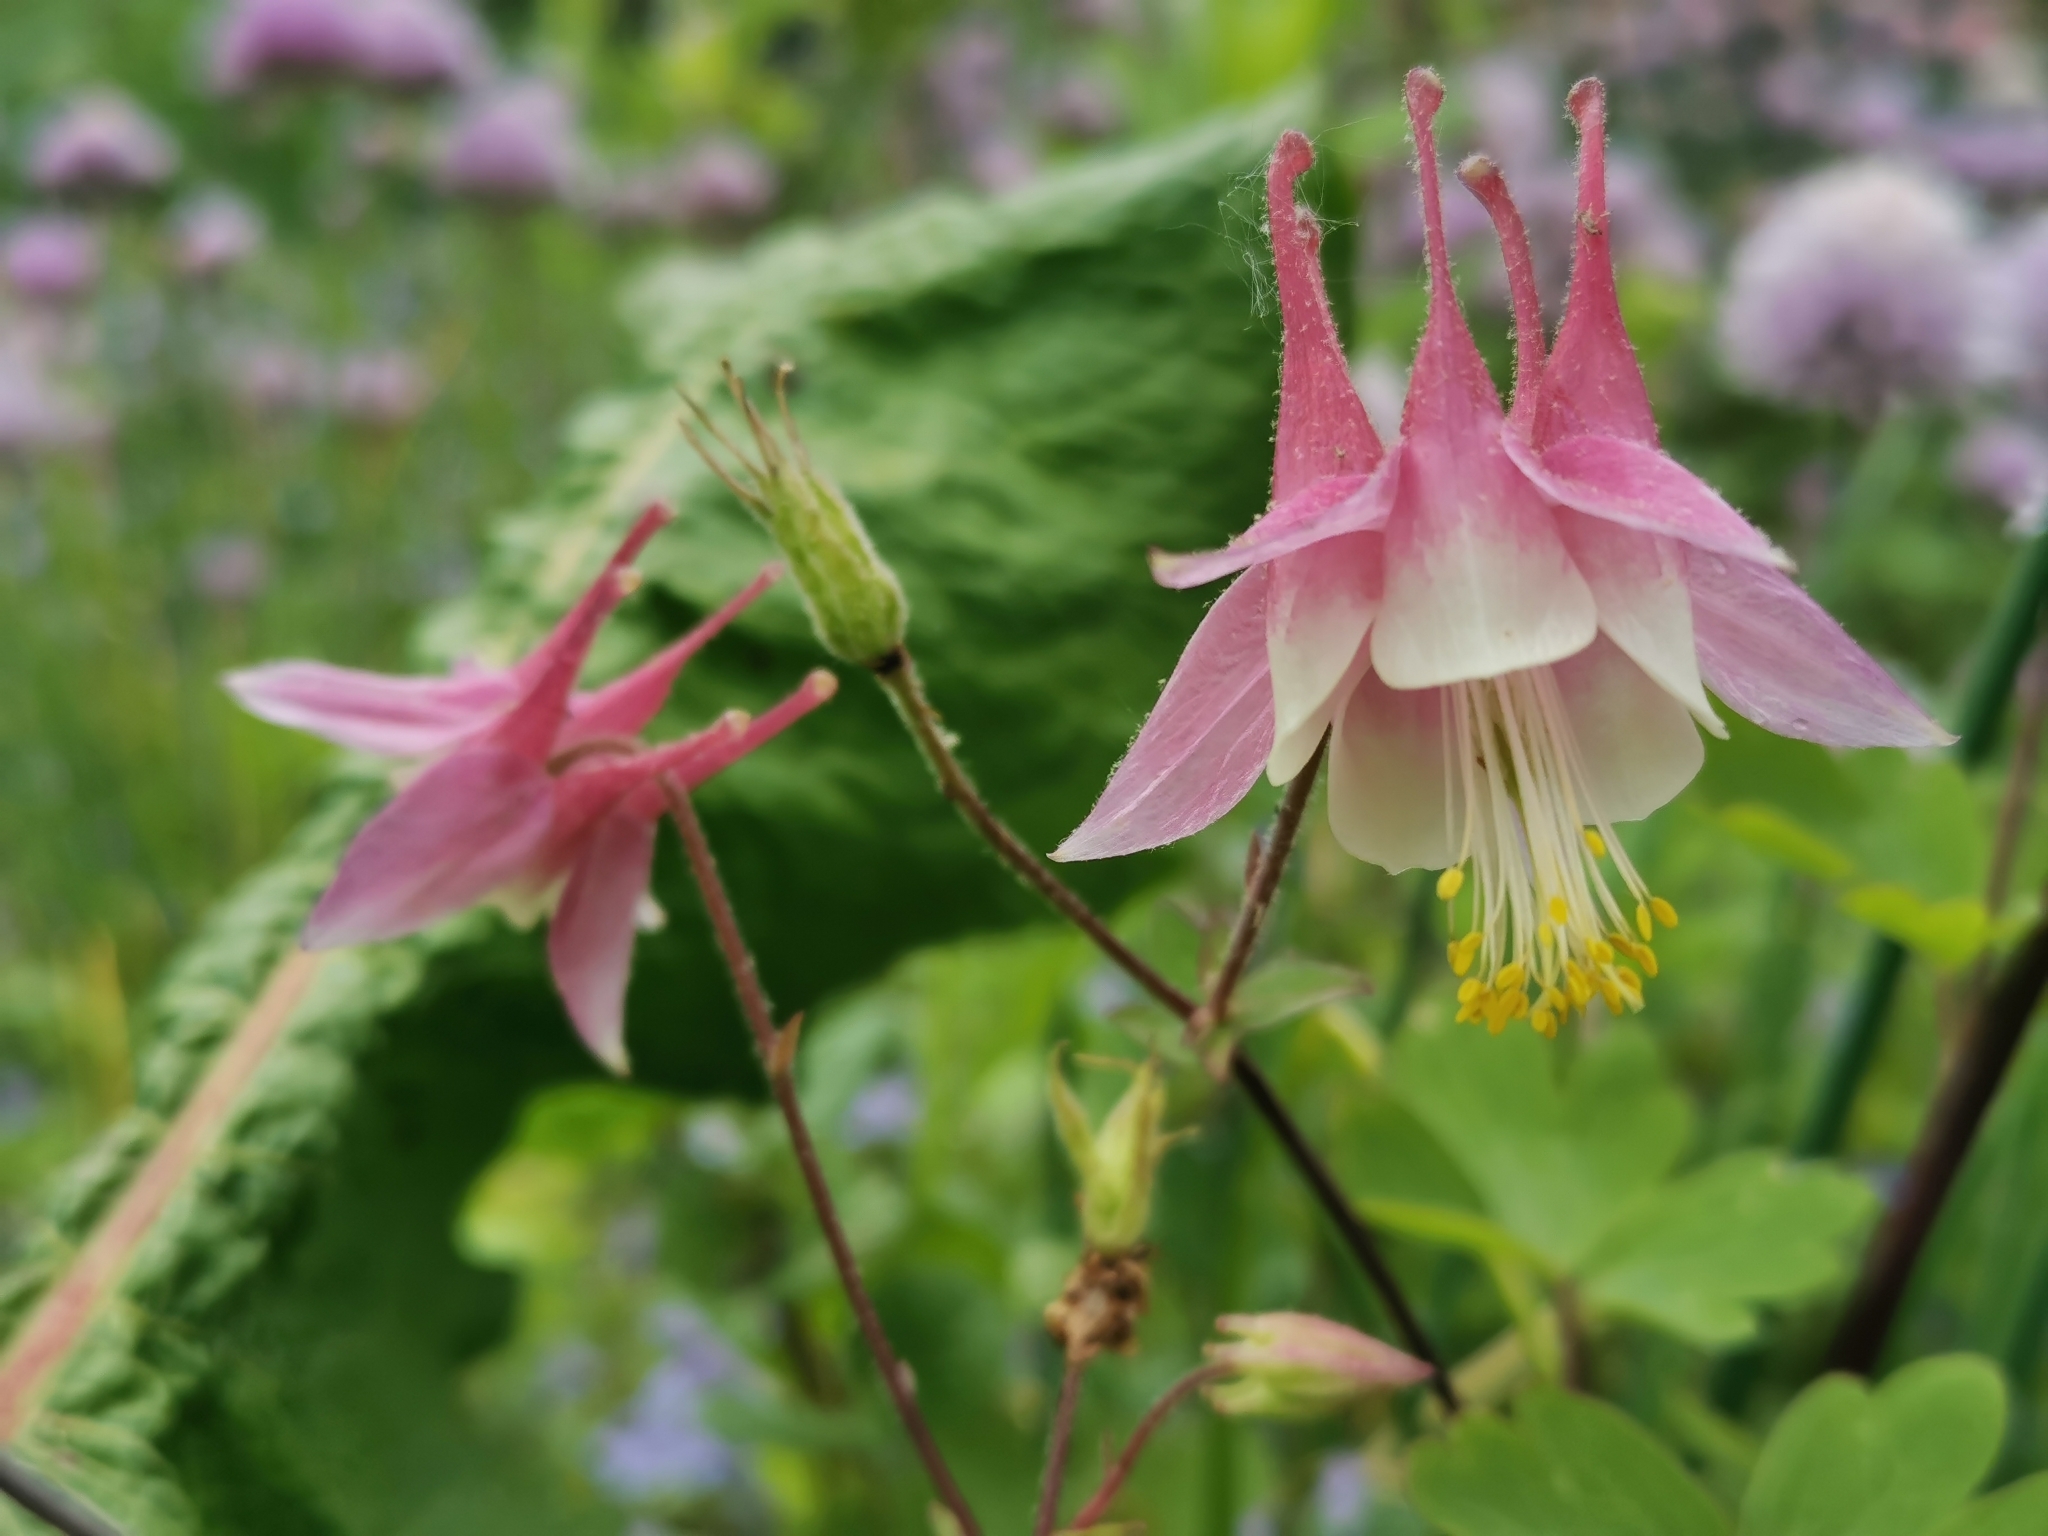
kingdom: Plantae
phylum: Tracheophyta
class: Magnoliopsida
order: Ranunculales
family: Ranunculaceae
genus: Aquilegia
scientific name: Aquilegia canadensis
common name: American columbine
